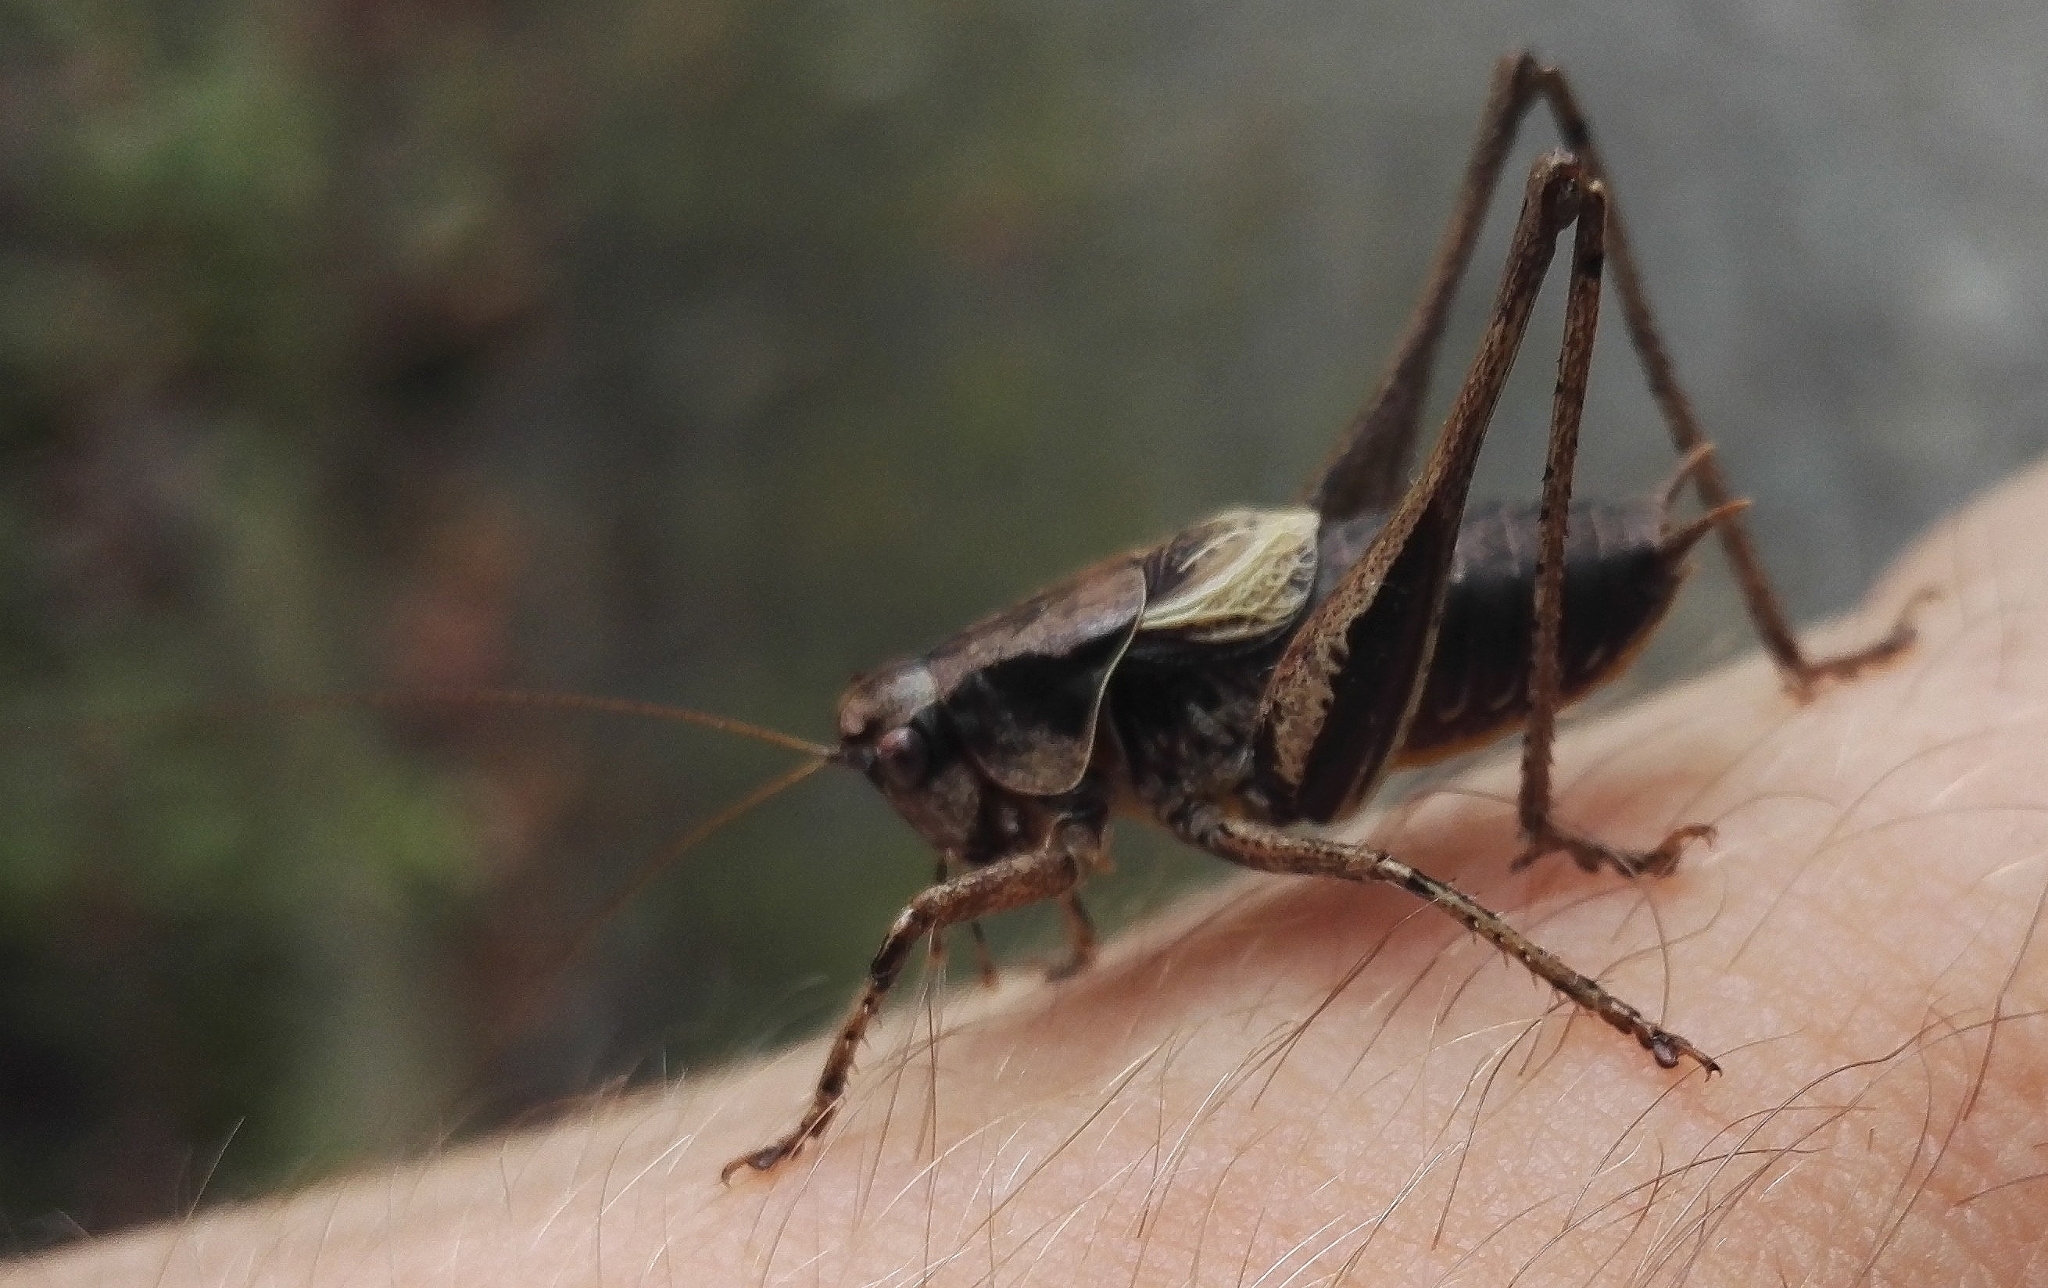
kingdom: Animalia
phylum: Arthropoda
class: Insecta
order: Orthoptera
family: Tettigoniidae
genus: Pholidoptera
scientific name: Pholidoptera griseoaptera
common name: Dark bush-cricket
